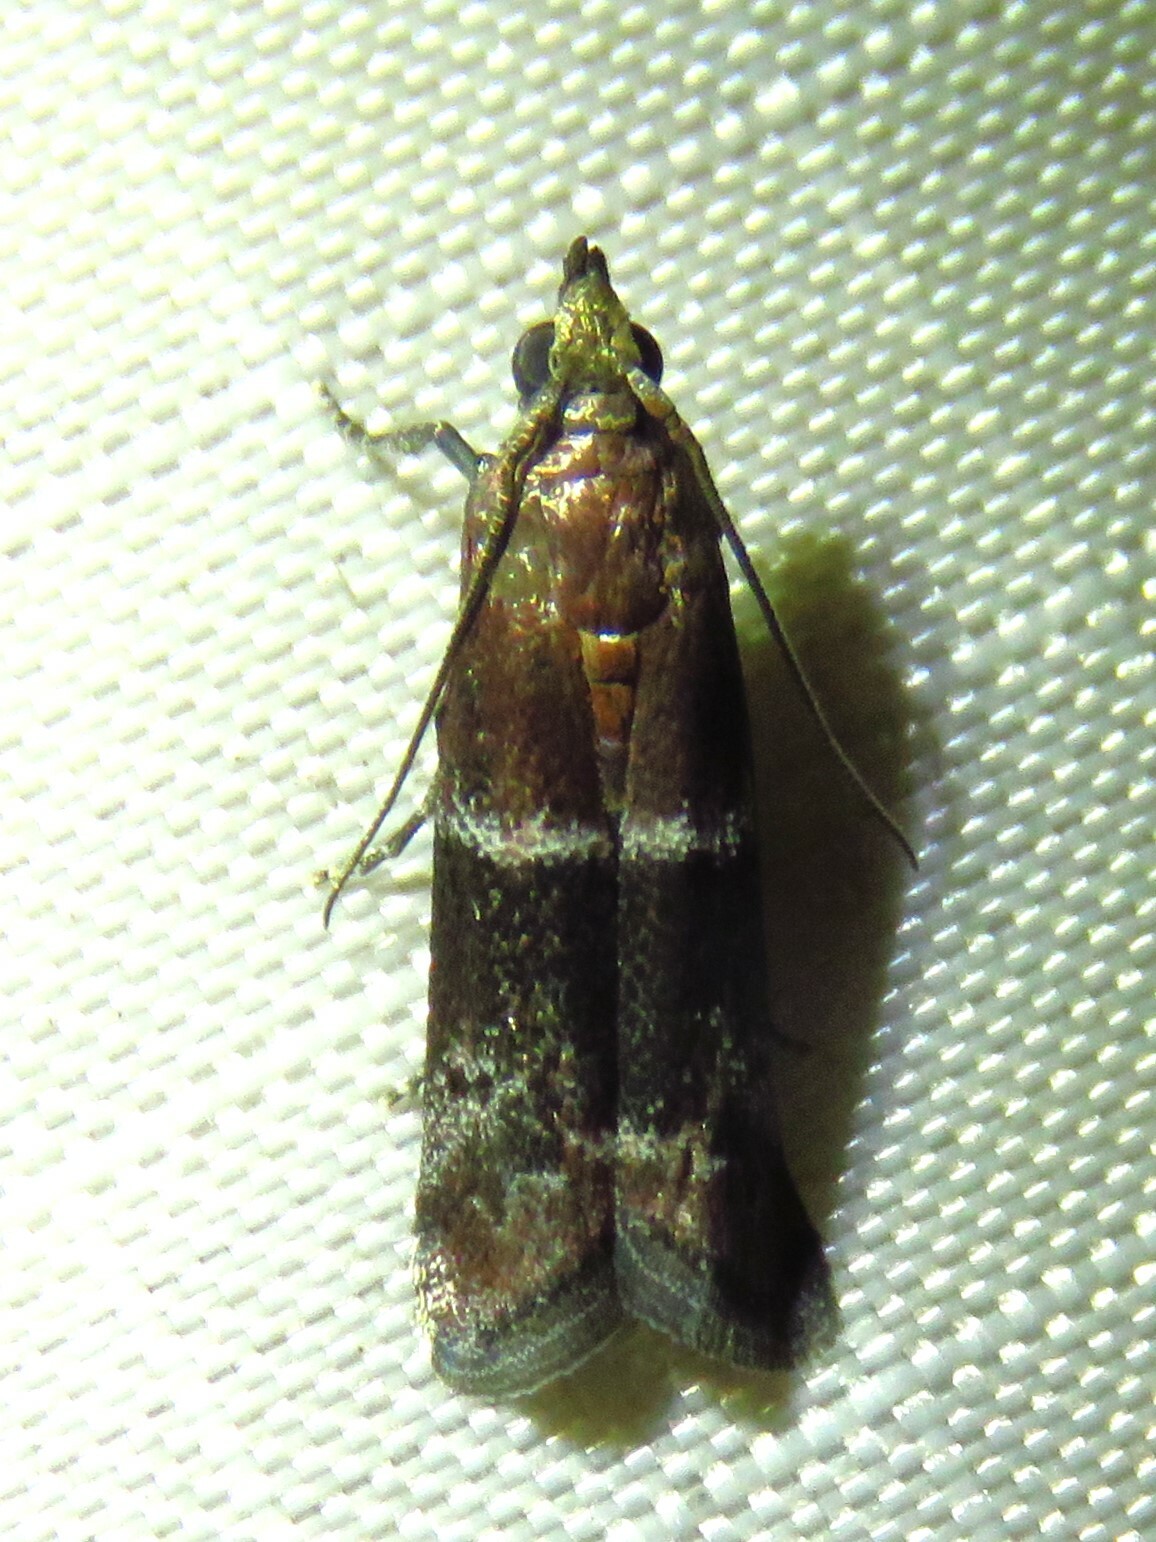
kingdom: Animalia
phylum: Arthropoda
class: Insecta
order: Lepidoptera
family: Pyralidae
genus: Moodna
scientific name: Moodna ostrinella
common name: Darker moodna moth
